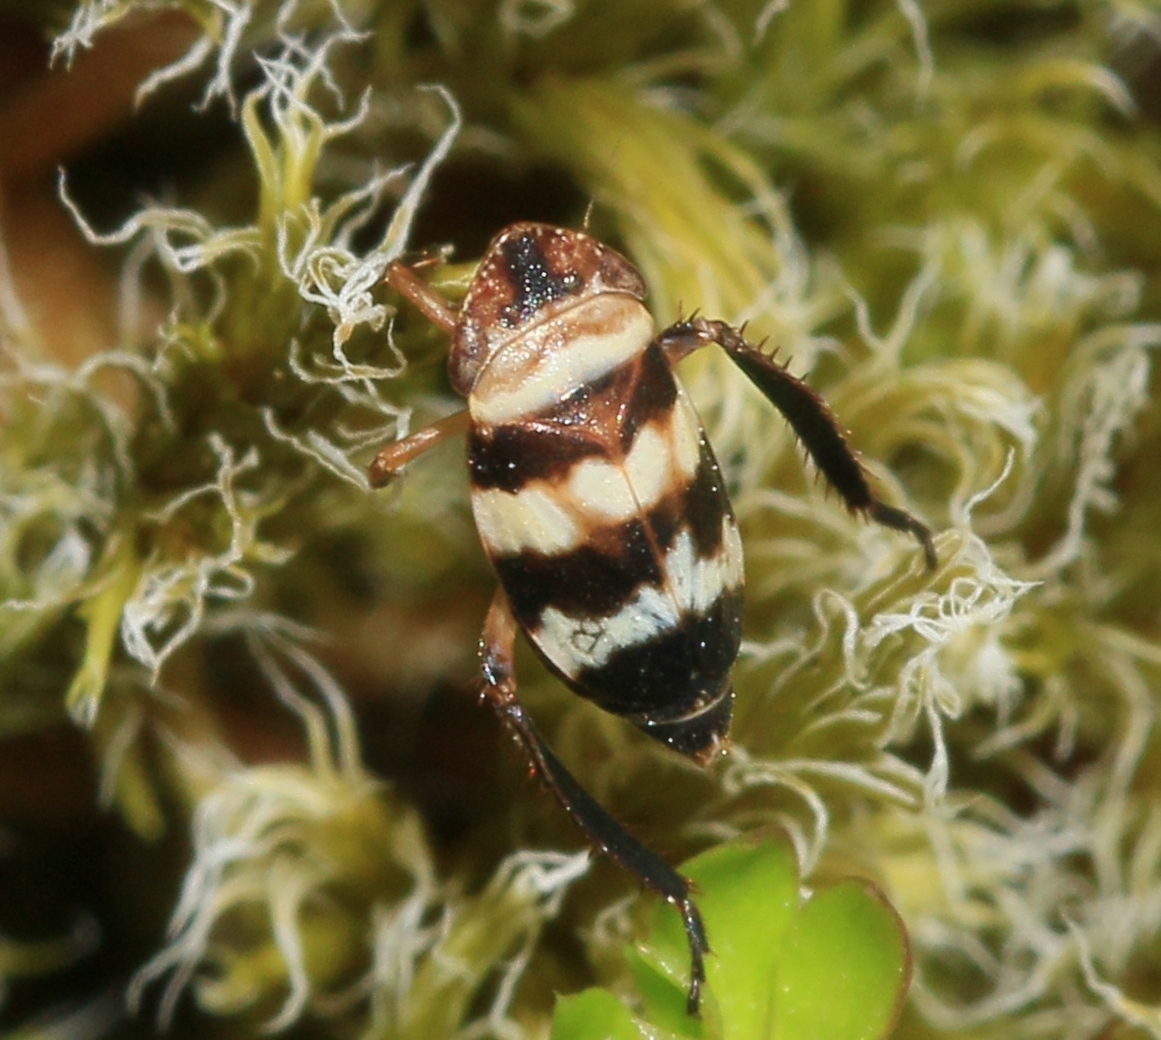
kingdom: Animalia
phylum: Arthropoda
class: Insecta
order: Hemiptera
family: Cicadellidae
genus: Planaphrodes
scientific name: Planaphrodes bifasciata
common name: Planthopper
